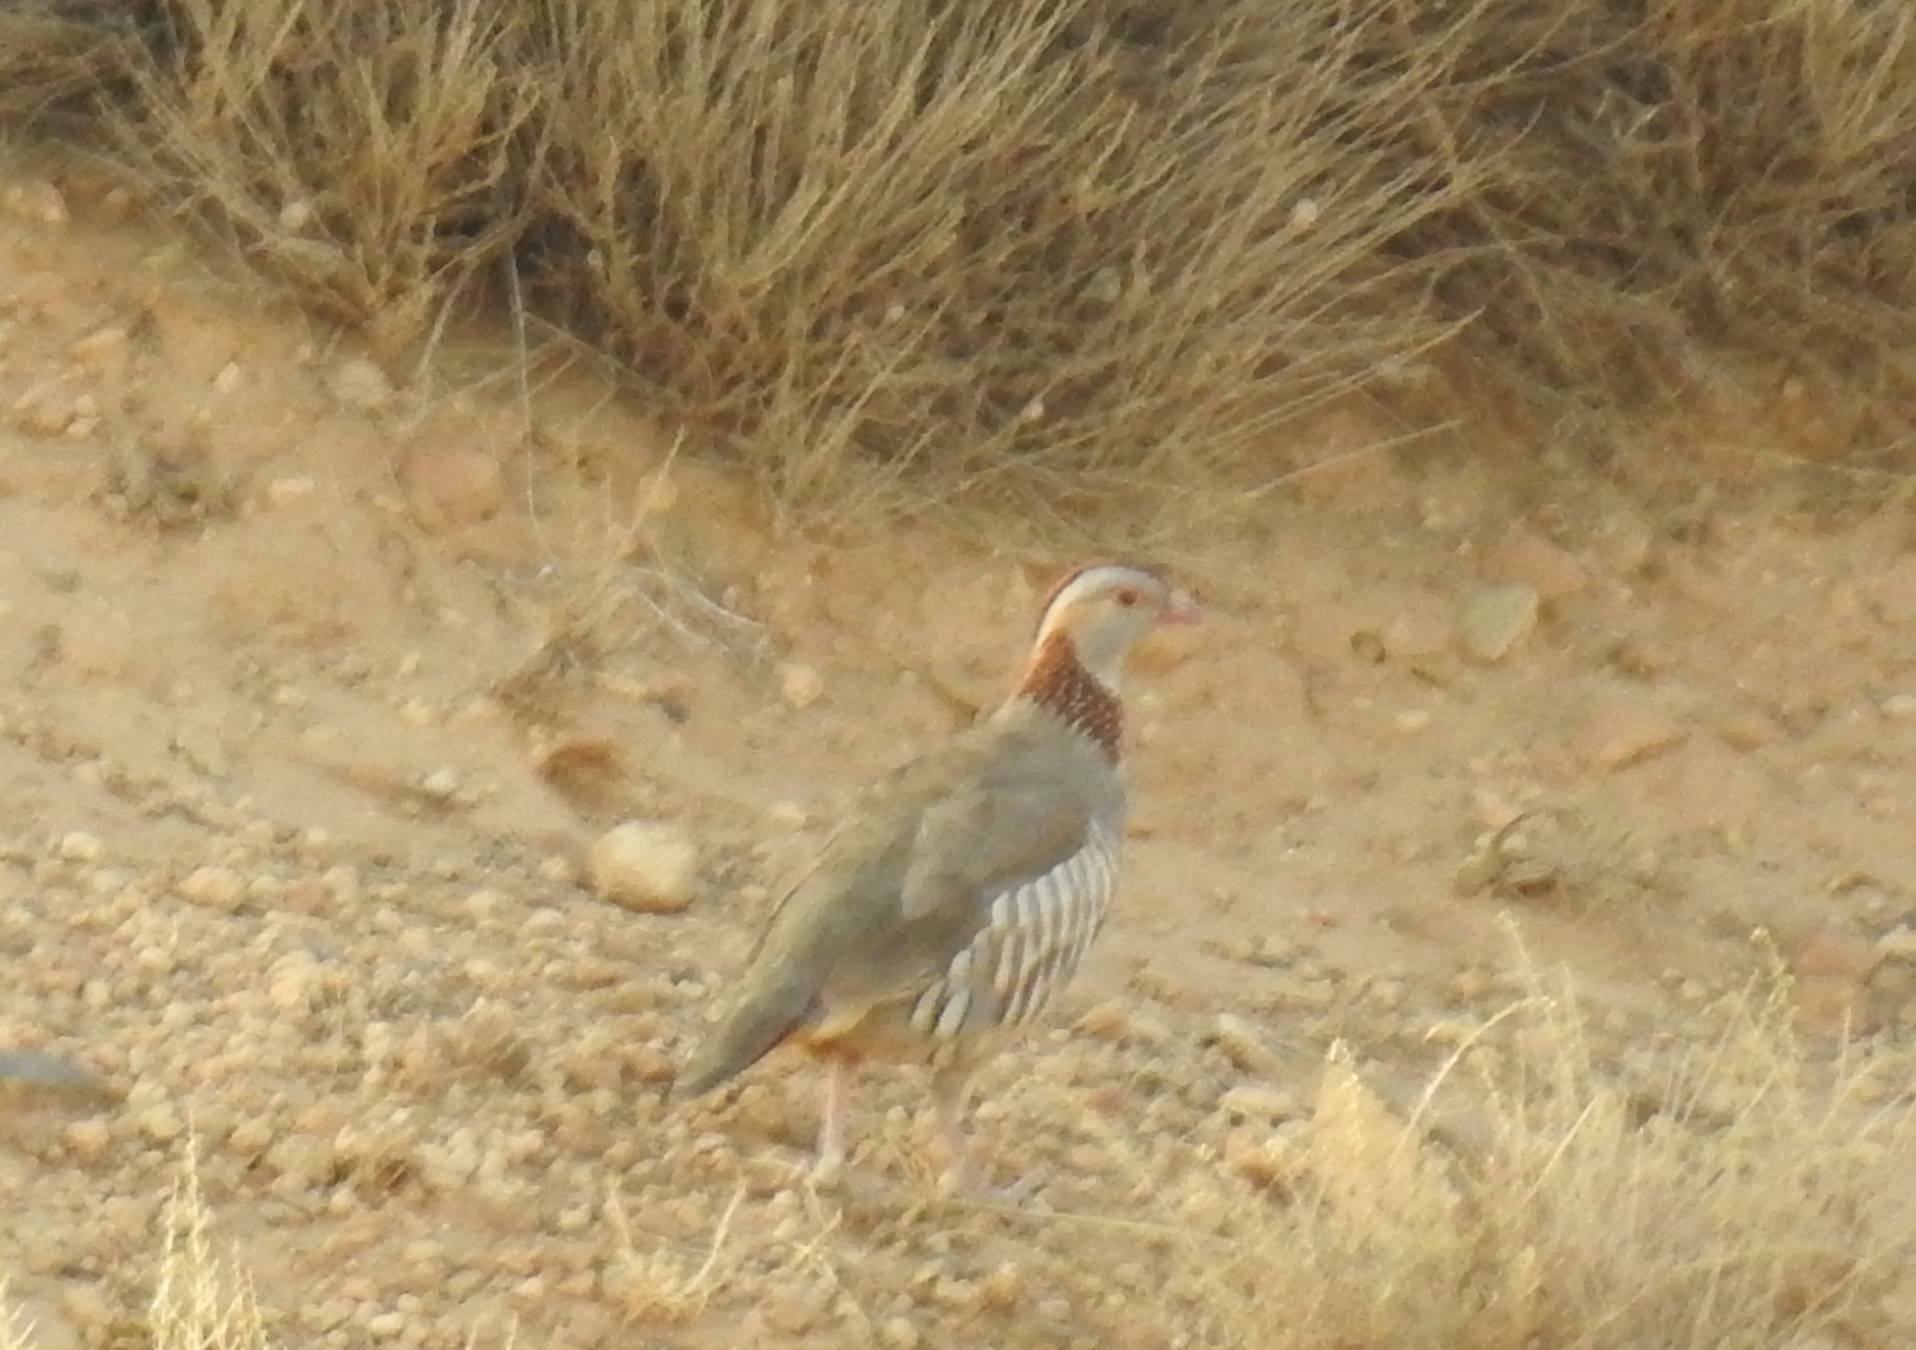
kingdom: Animalia
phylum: Chordata
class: Aves
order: Galliformes
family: Phasianidae
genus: Alectoris
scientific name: Alectoris barbara
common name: Barbary partridge
